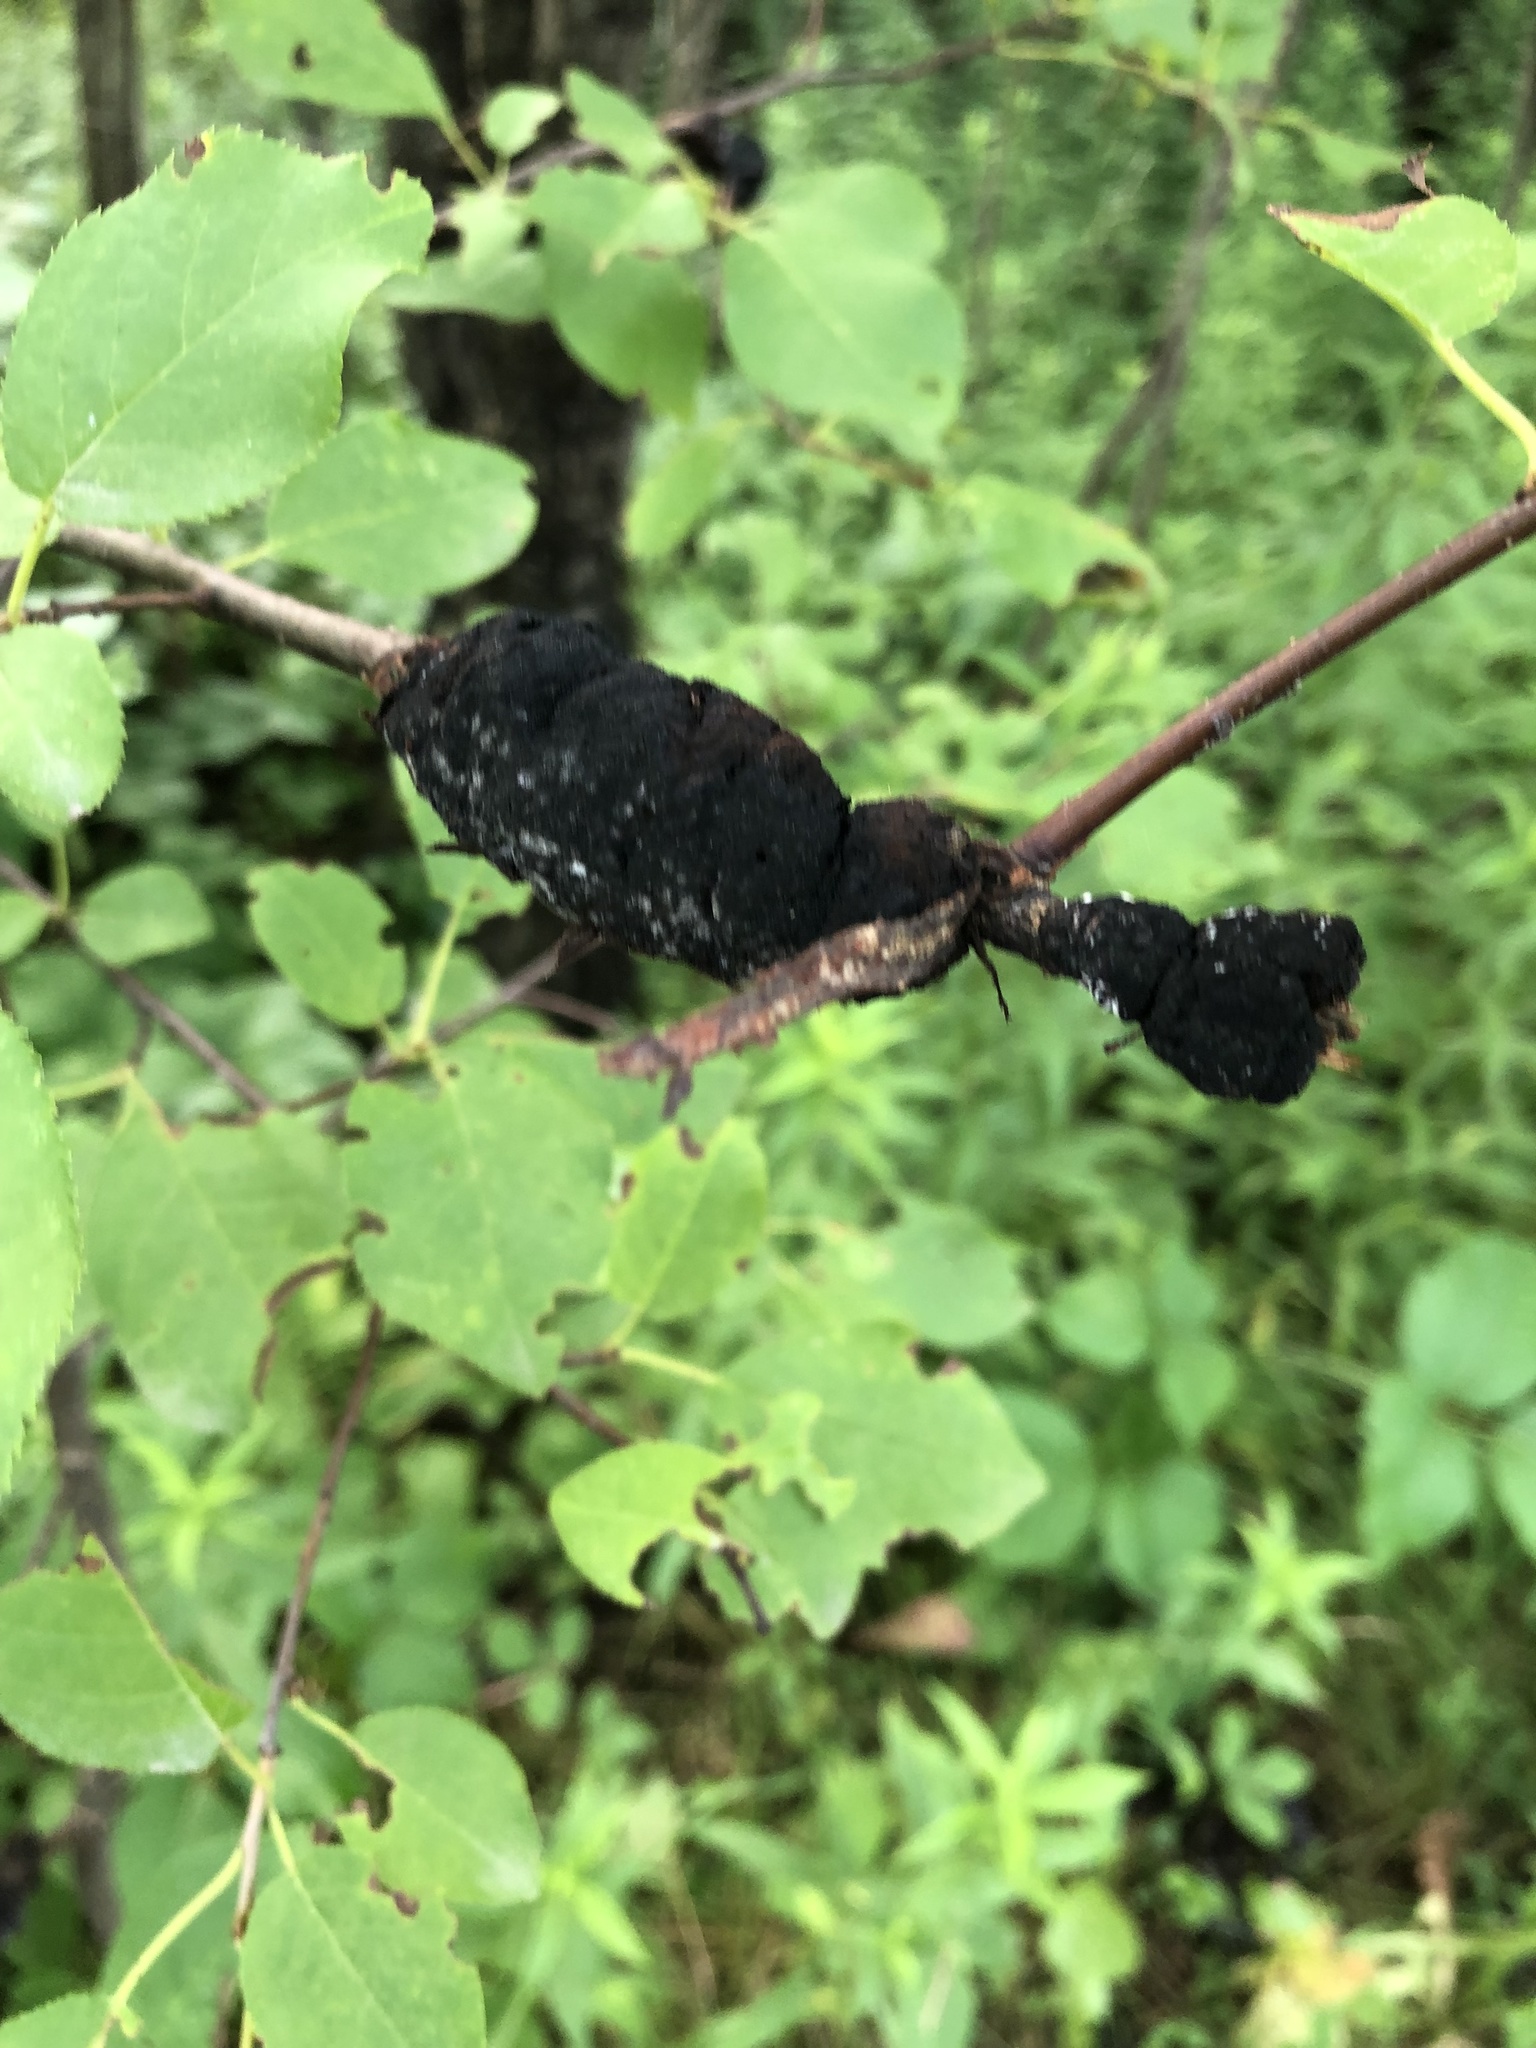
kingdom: Fungi
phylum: Ascomycota
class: Dothideomycetes
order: Venturiales
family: Venturiaceae
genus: Apiosporina
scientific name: Apiosporina morbosa
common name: Black knot
